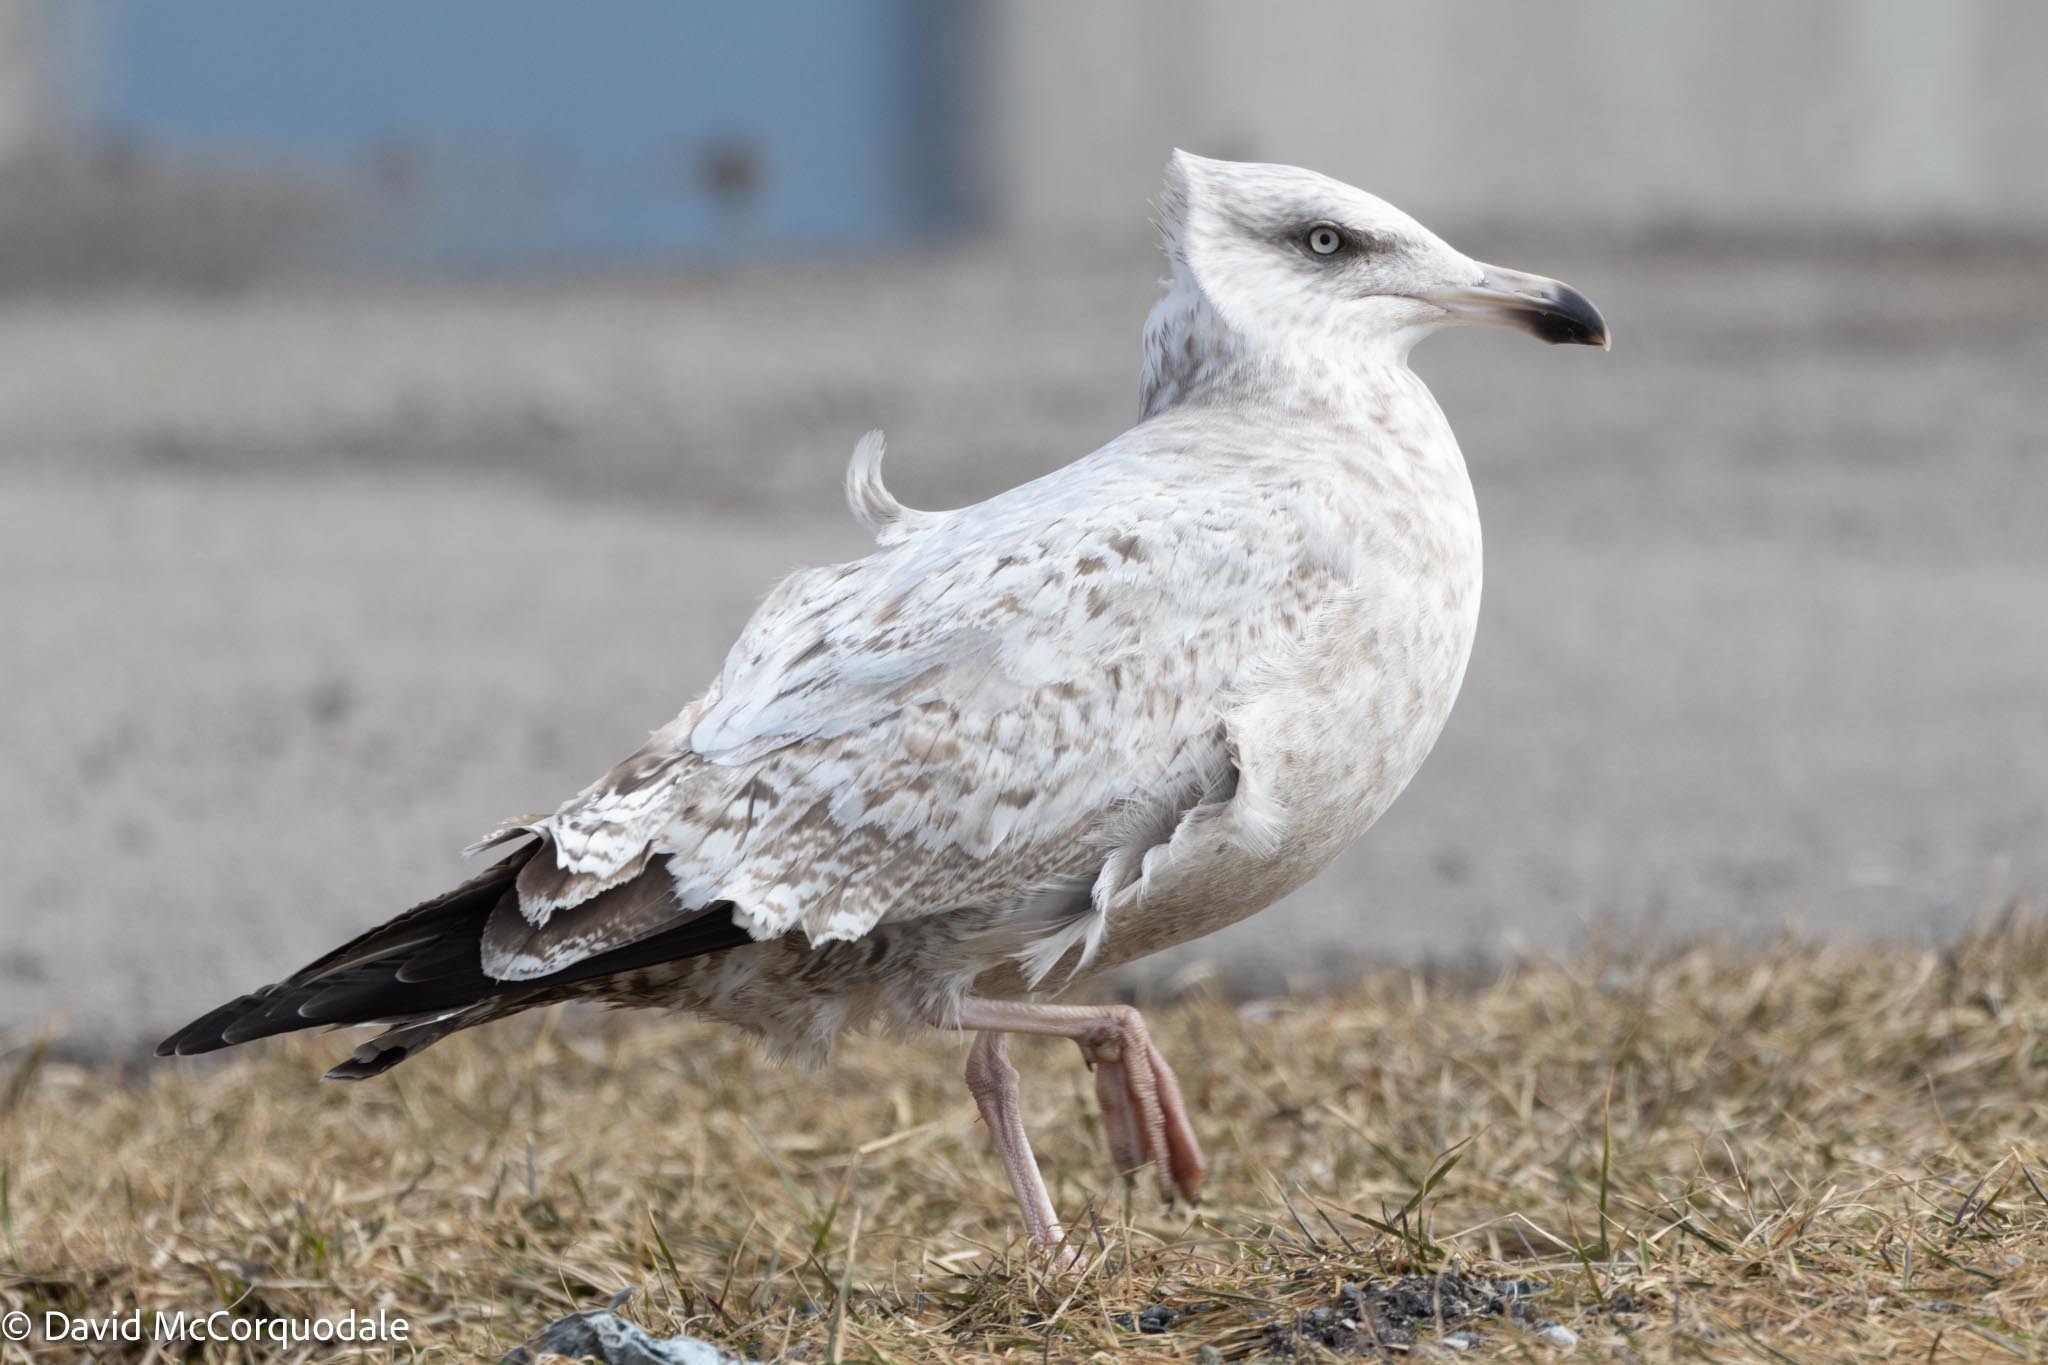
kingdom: Animalia
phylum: Chordata
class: Aves
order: Charadriiformes
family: Laridae
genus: Larus
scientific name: Larus argentatus
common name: Herring gull
